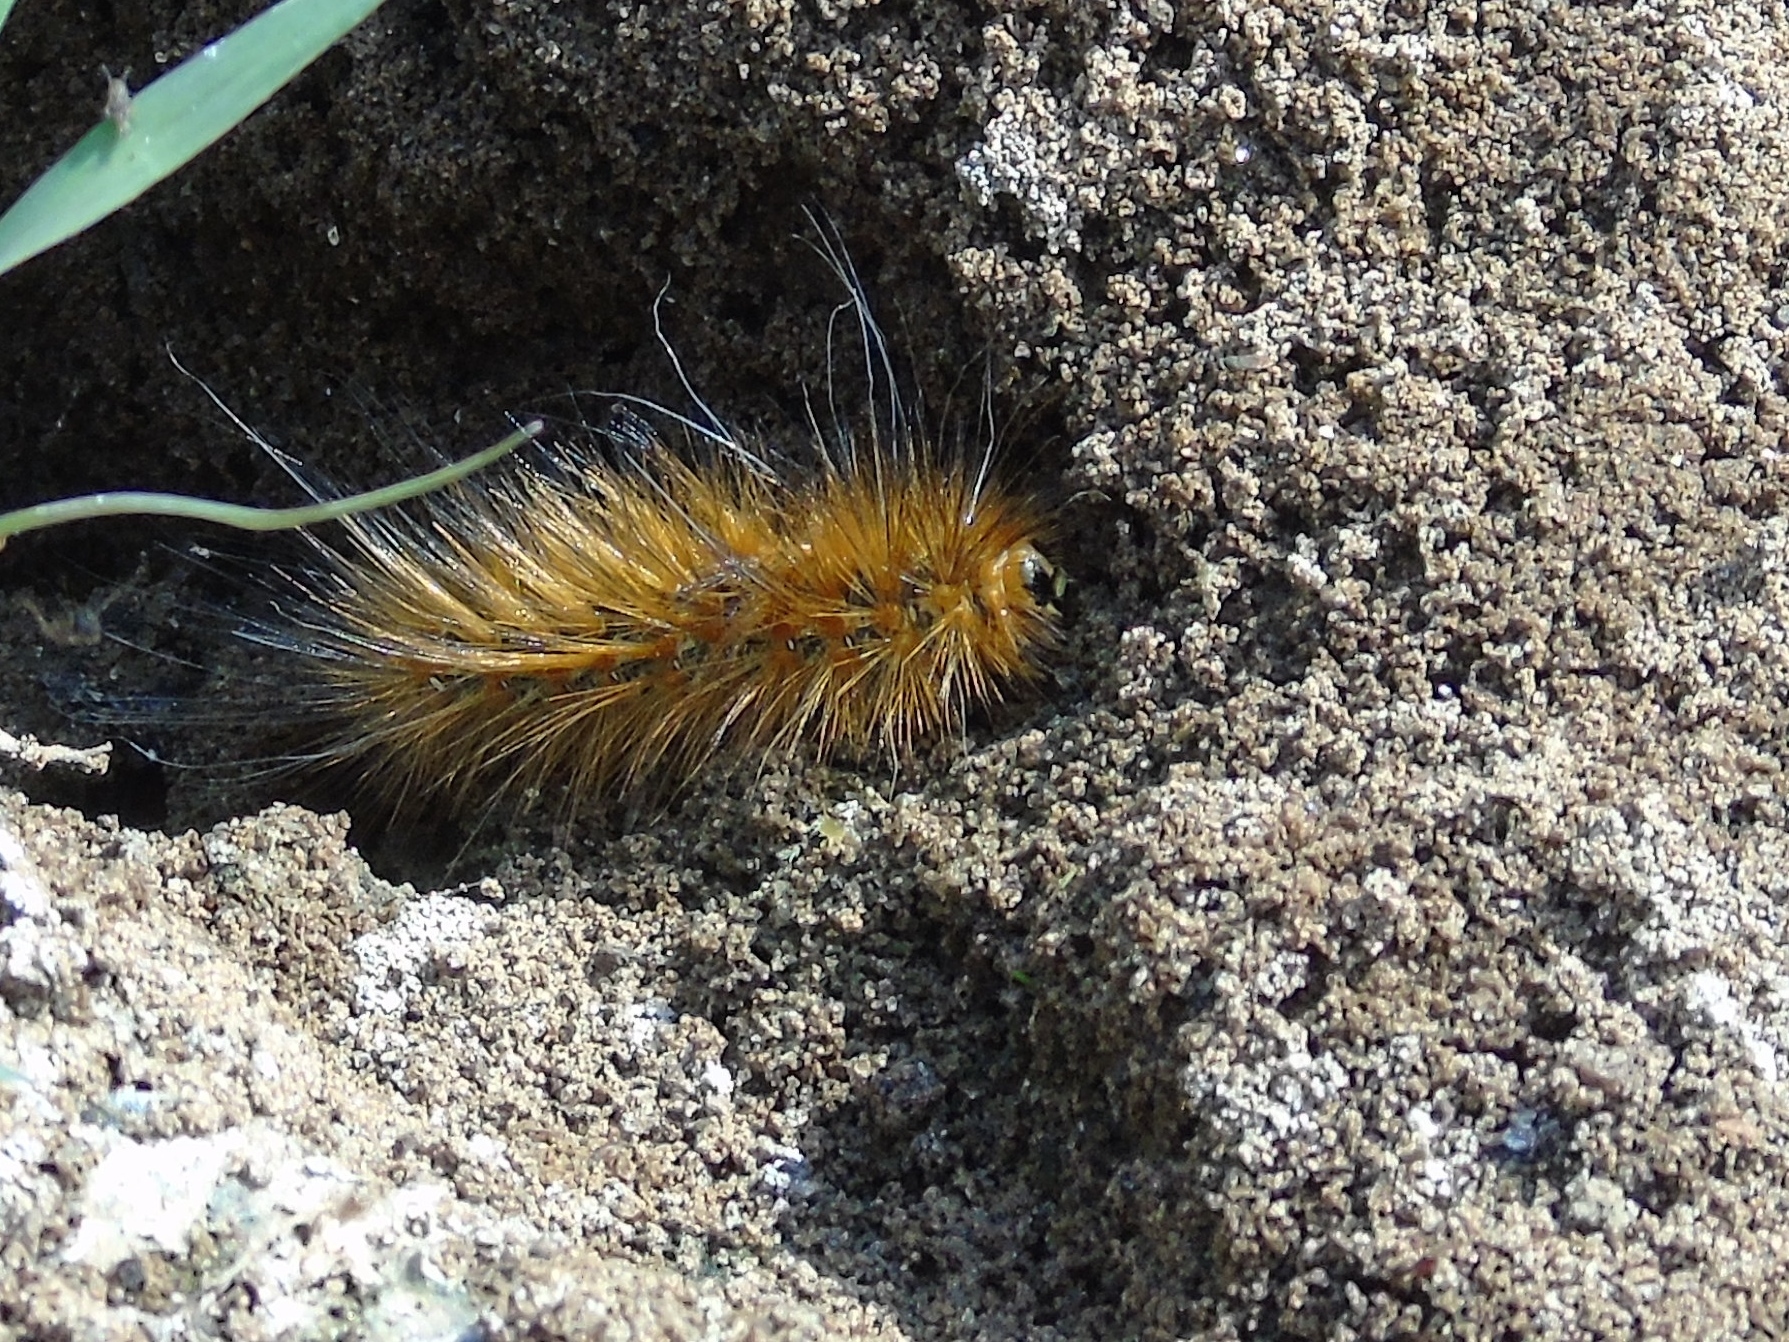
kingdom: Animalia
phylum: Arthropoda
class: Insecta
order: Lepidoptera
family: Erebidae
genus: Estigmene
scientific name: Estigmene acrea
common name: Salt marsh moth
